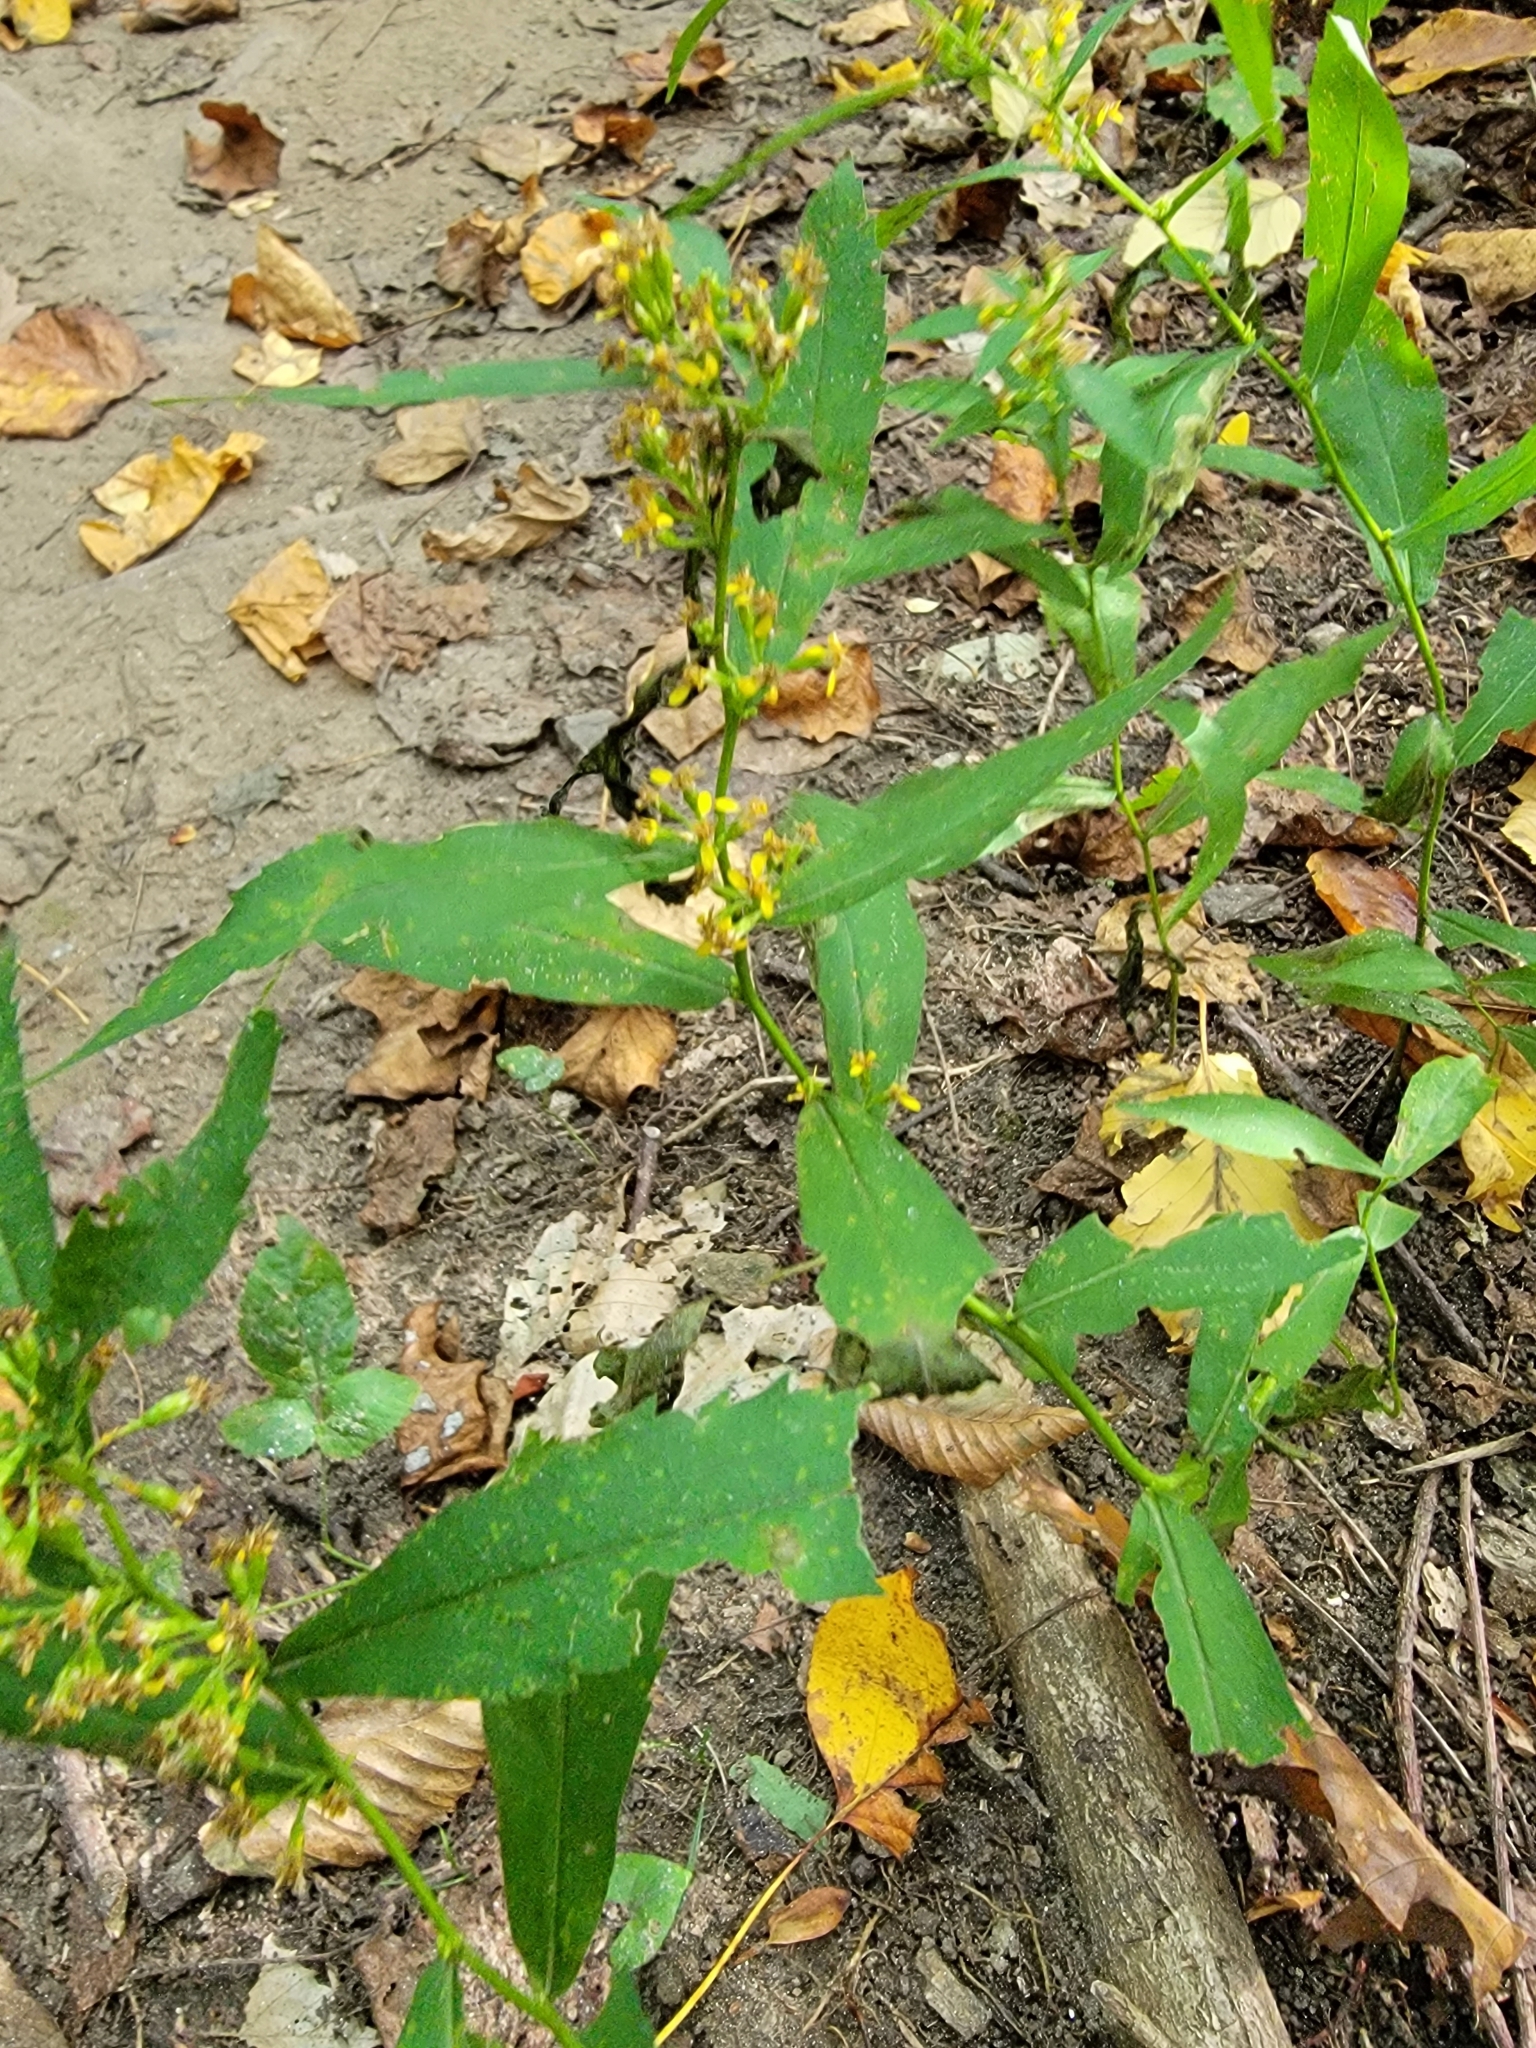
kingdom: Plantae
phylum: Tracheophyta
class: Magnoliopsida
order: Asterales
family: Asteraceae
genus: Solidago
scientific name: Solidago caesia
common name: Woodland goldenrod
